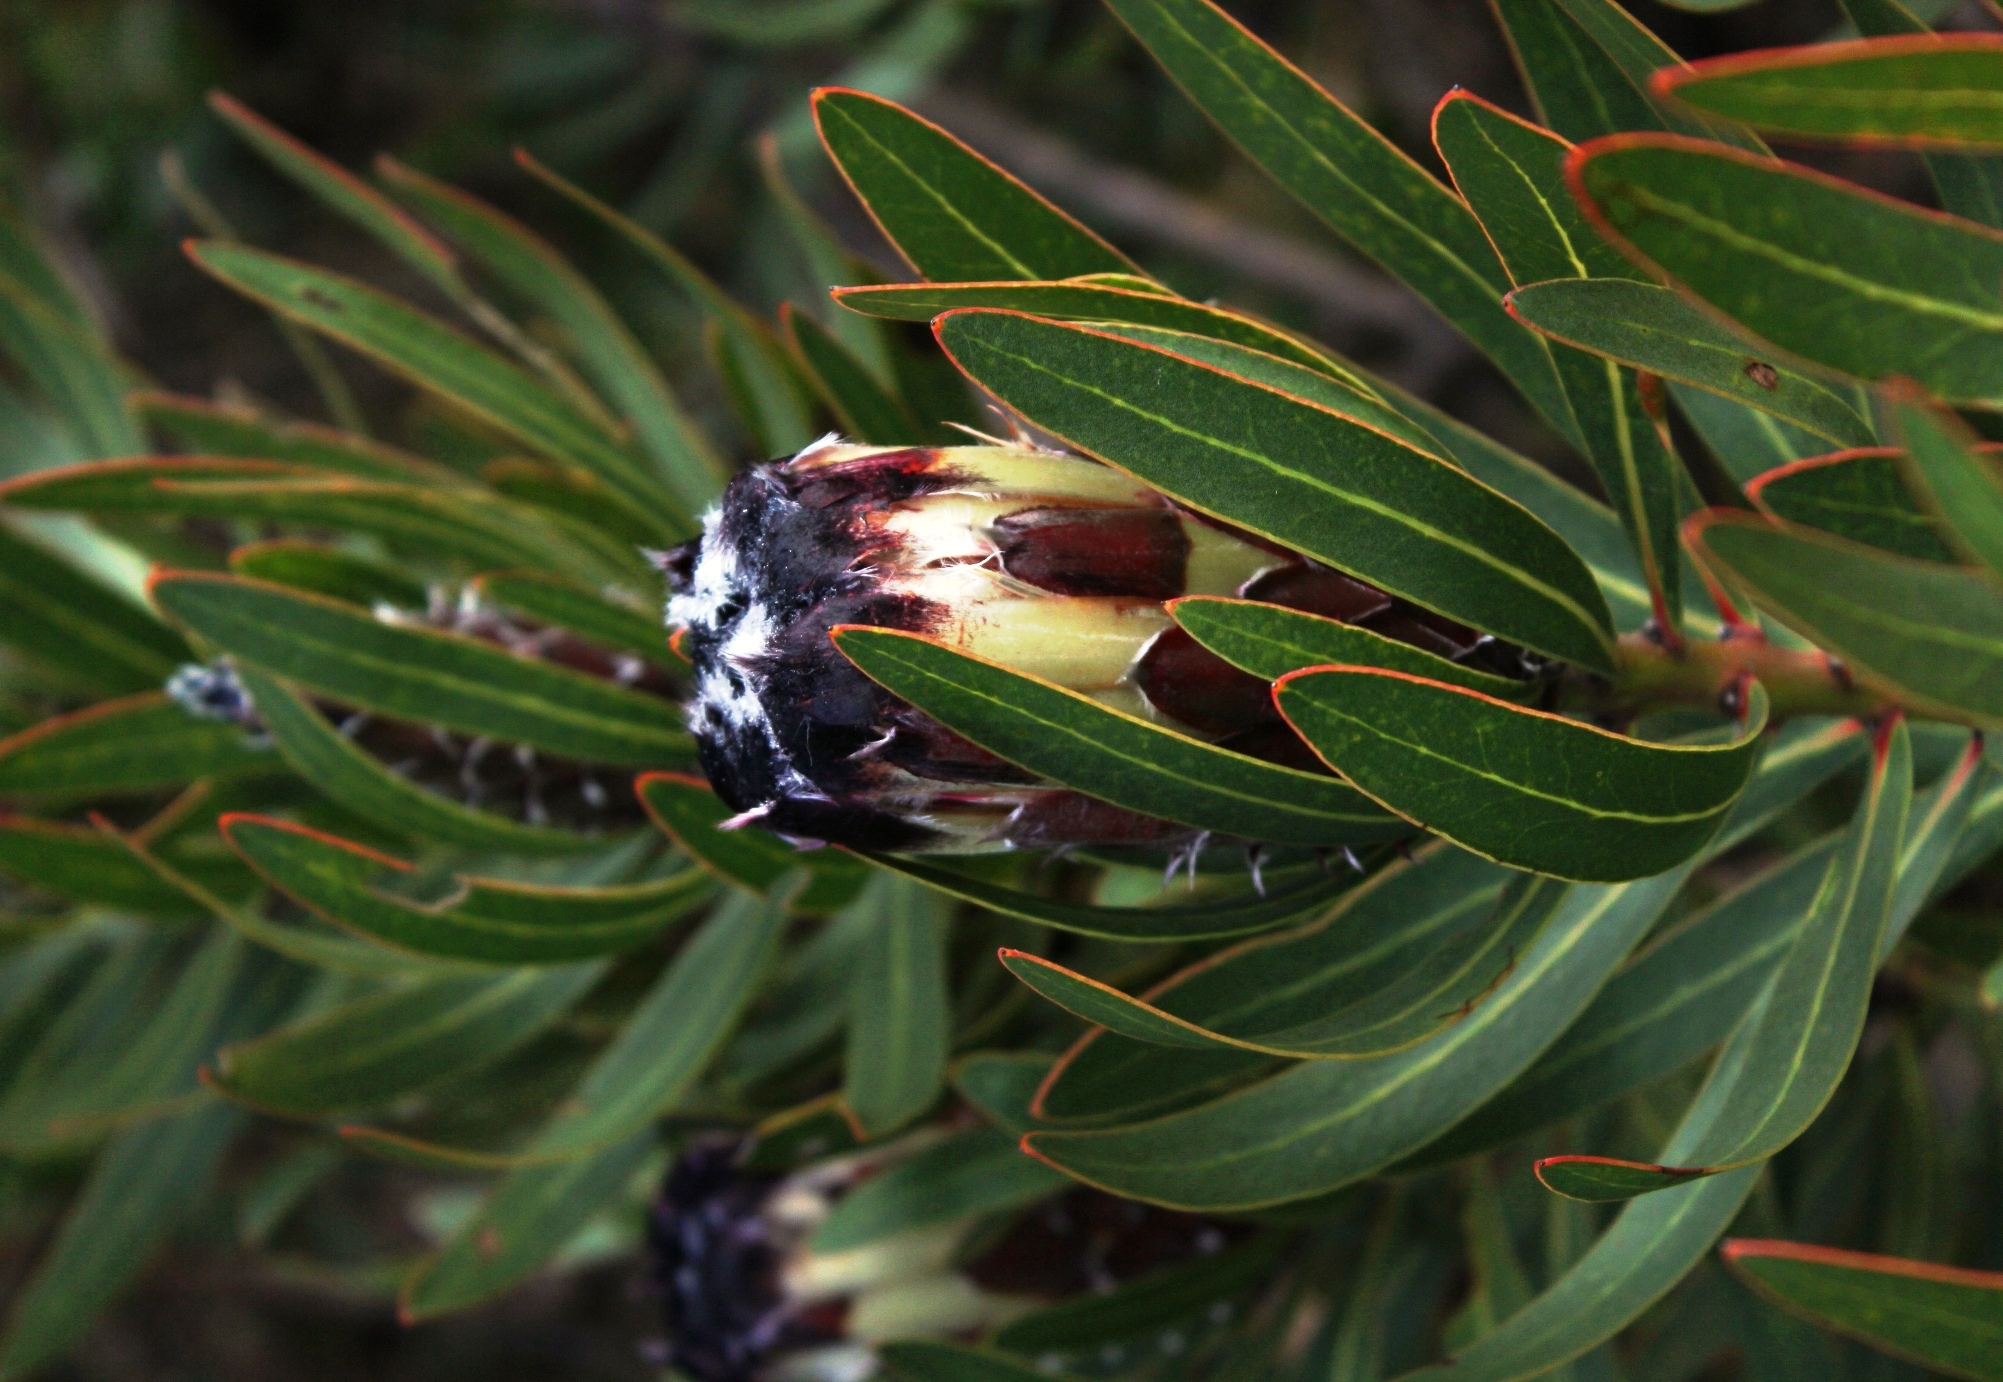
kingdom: Plantae
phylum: Tracheophyta
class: Magnoliopsida
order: Proteales
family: Proteaceae
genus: Protea
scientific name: Protea lepidocarpodendron
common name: Black-bearded protea
